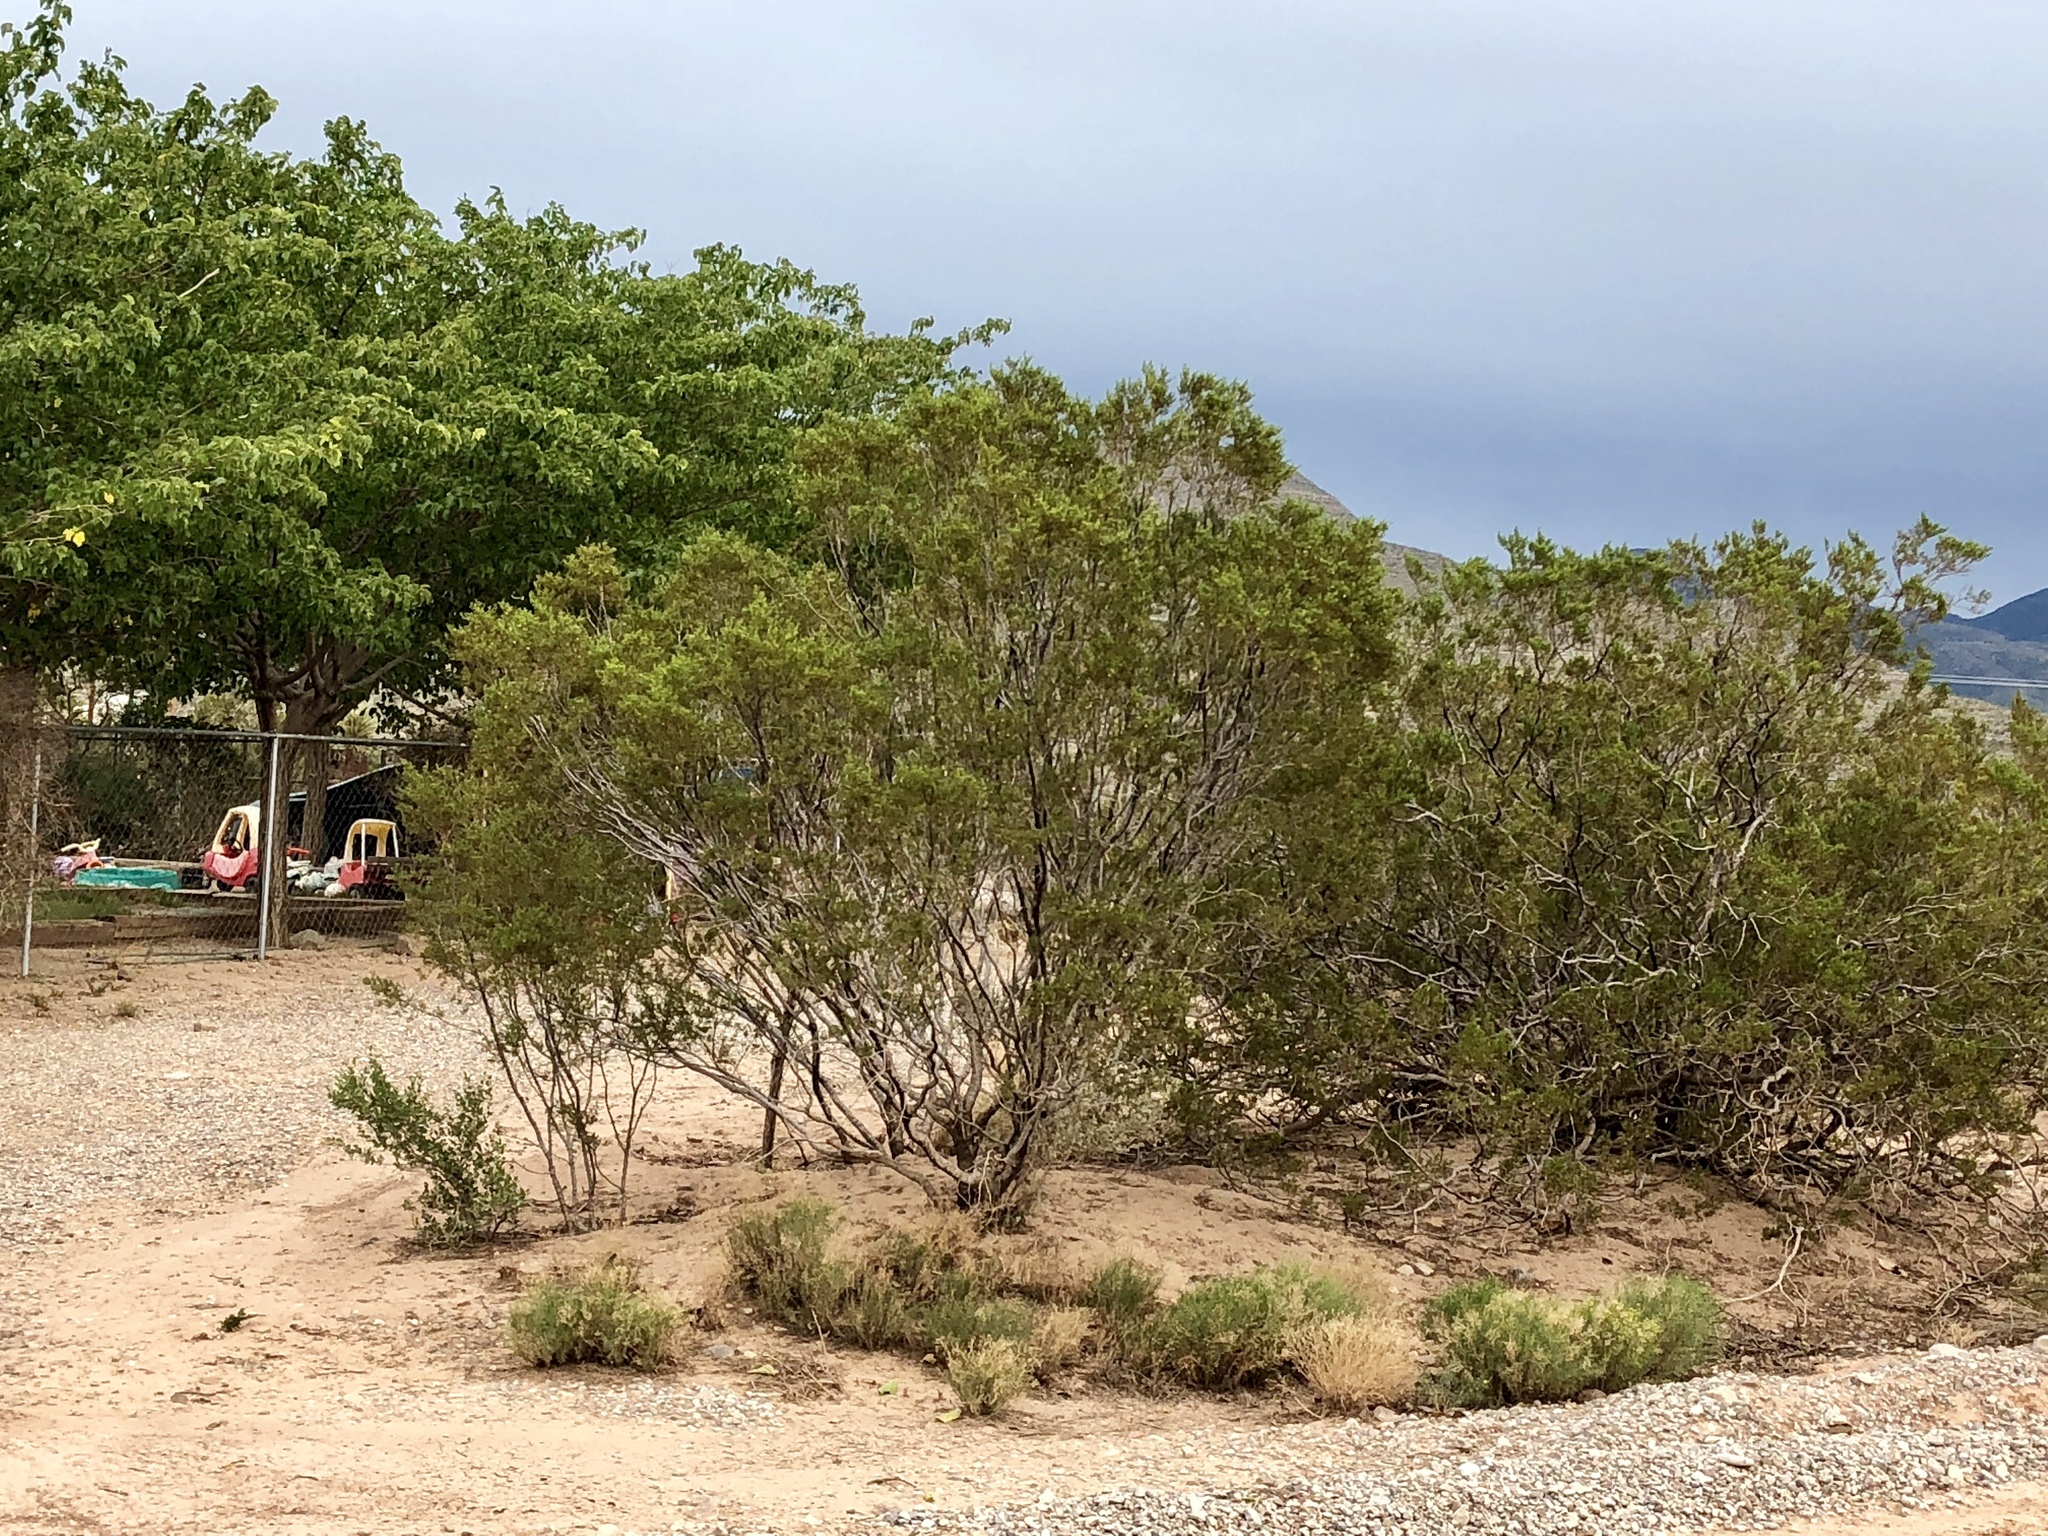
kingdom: Plantae
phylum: Tracheophyta
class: Magnoliopsida
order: Zygophyllales
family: Zygophyllaceae
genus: Larrea
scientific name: Larrea tridentata
